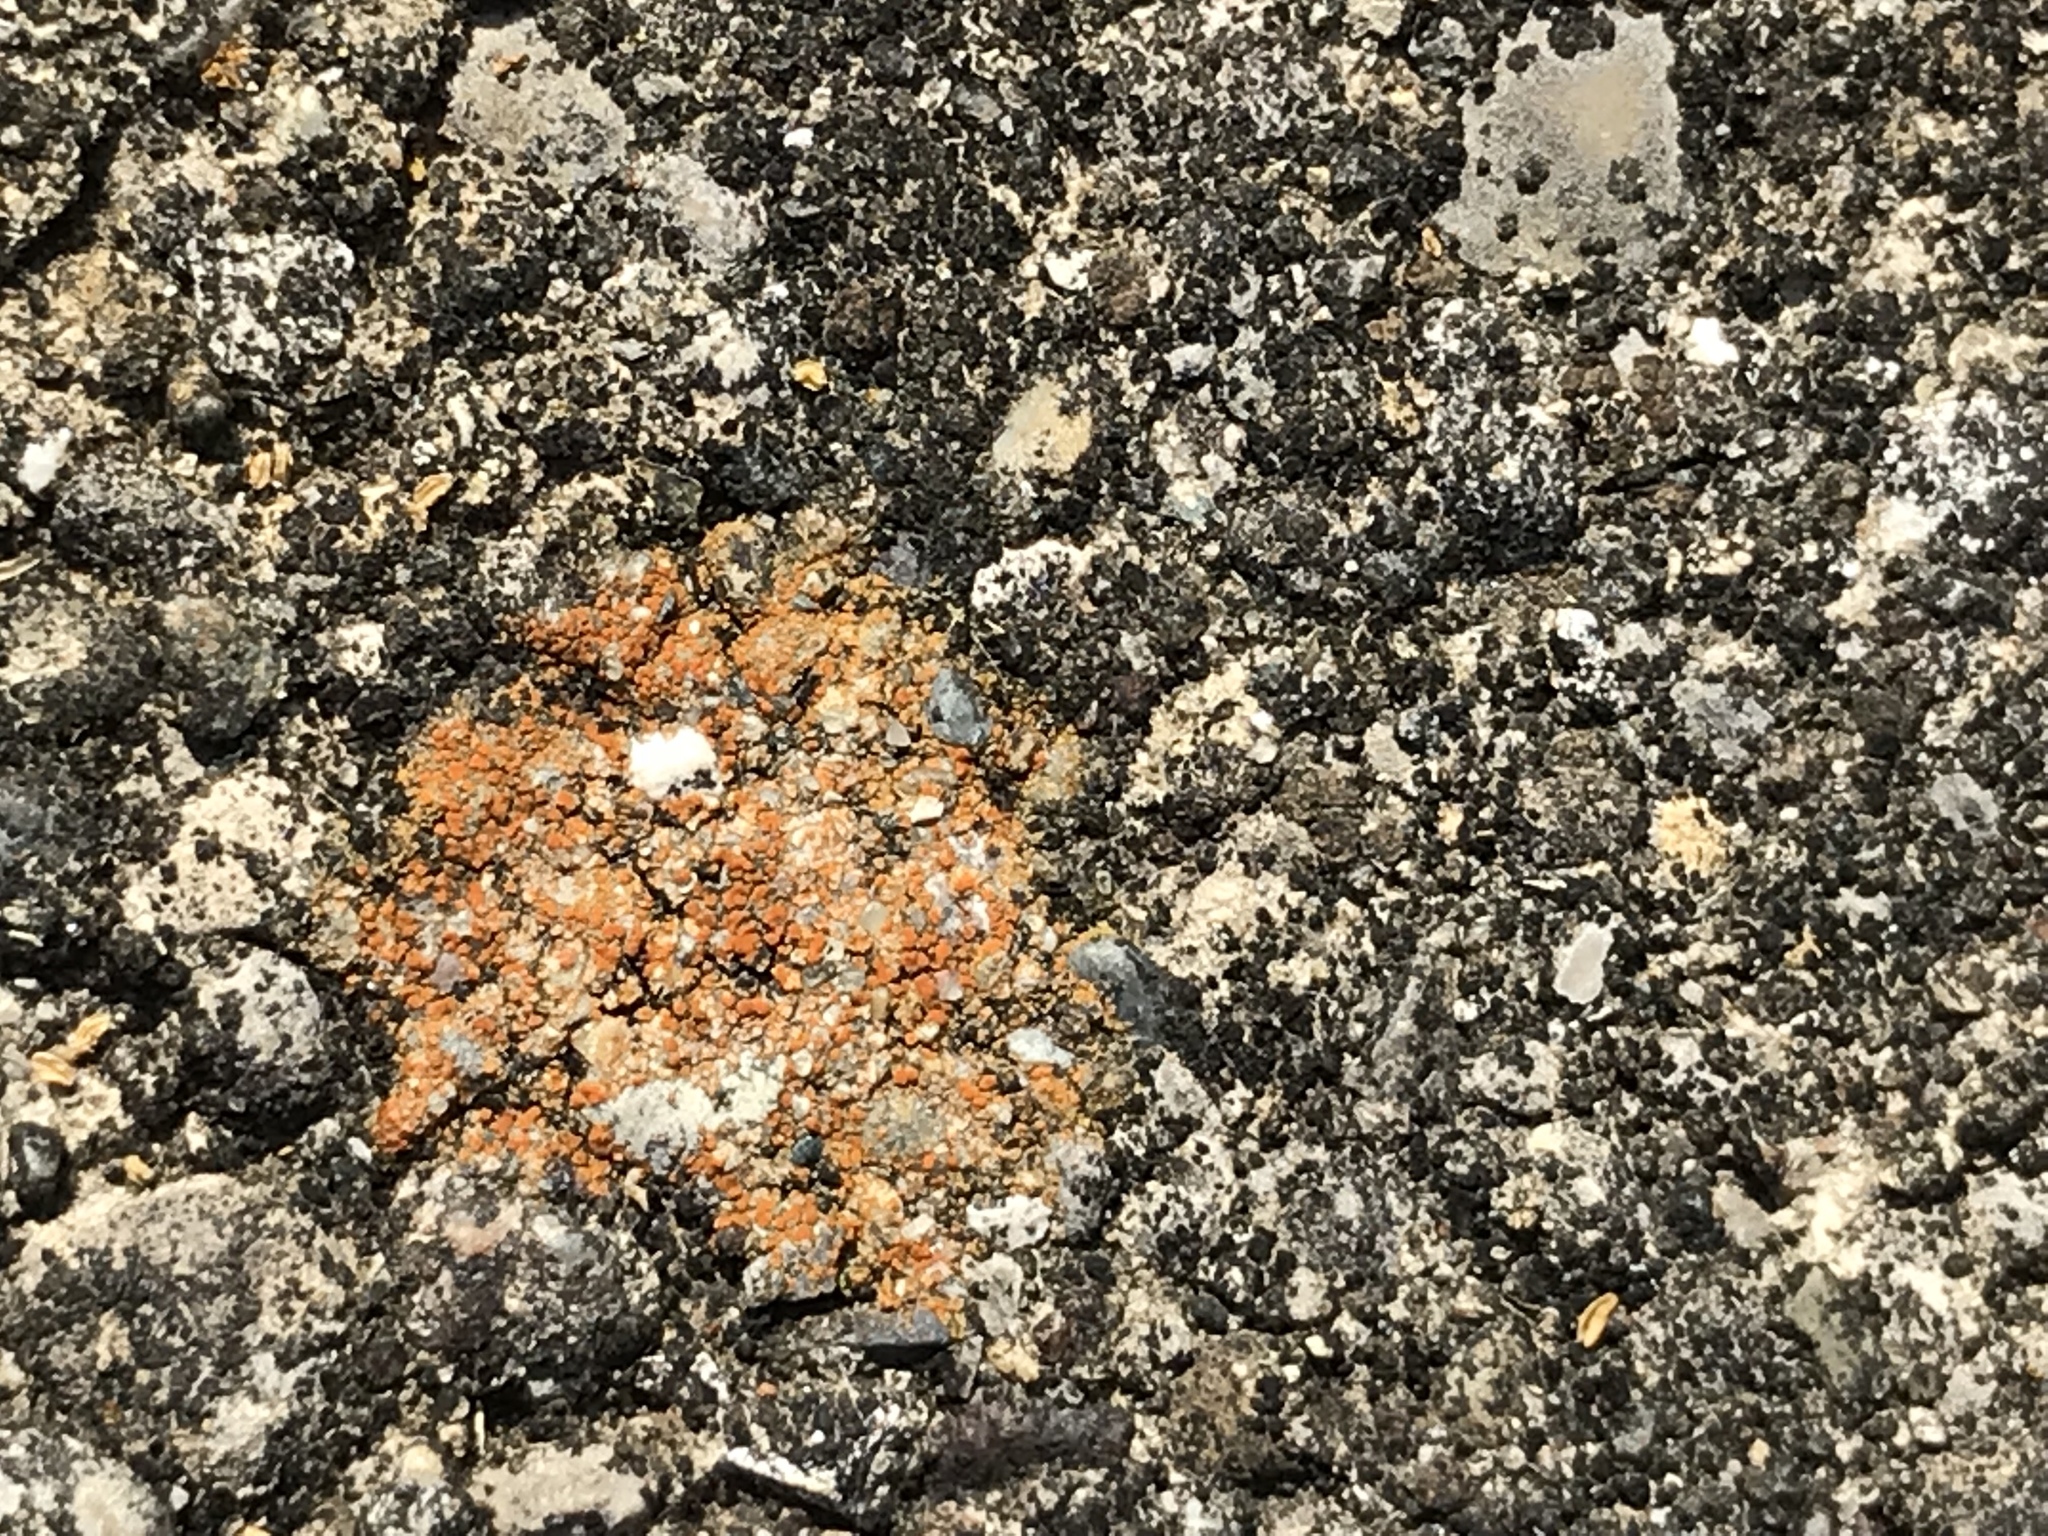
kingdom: Fungi
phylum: Ascomycota
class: Lecanoromycetes
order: Teloschistales
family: Teloschistaceae
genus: Xanthocarpia
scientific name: Xanthocarpia feracissima
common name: Sidewalk firedot
